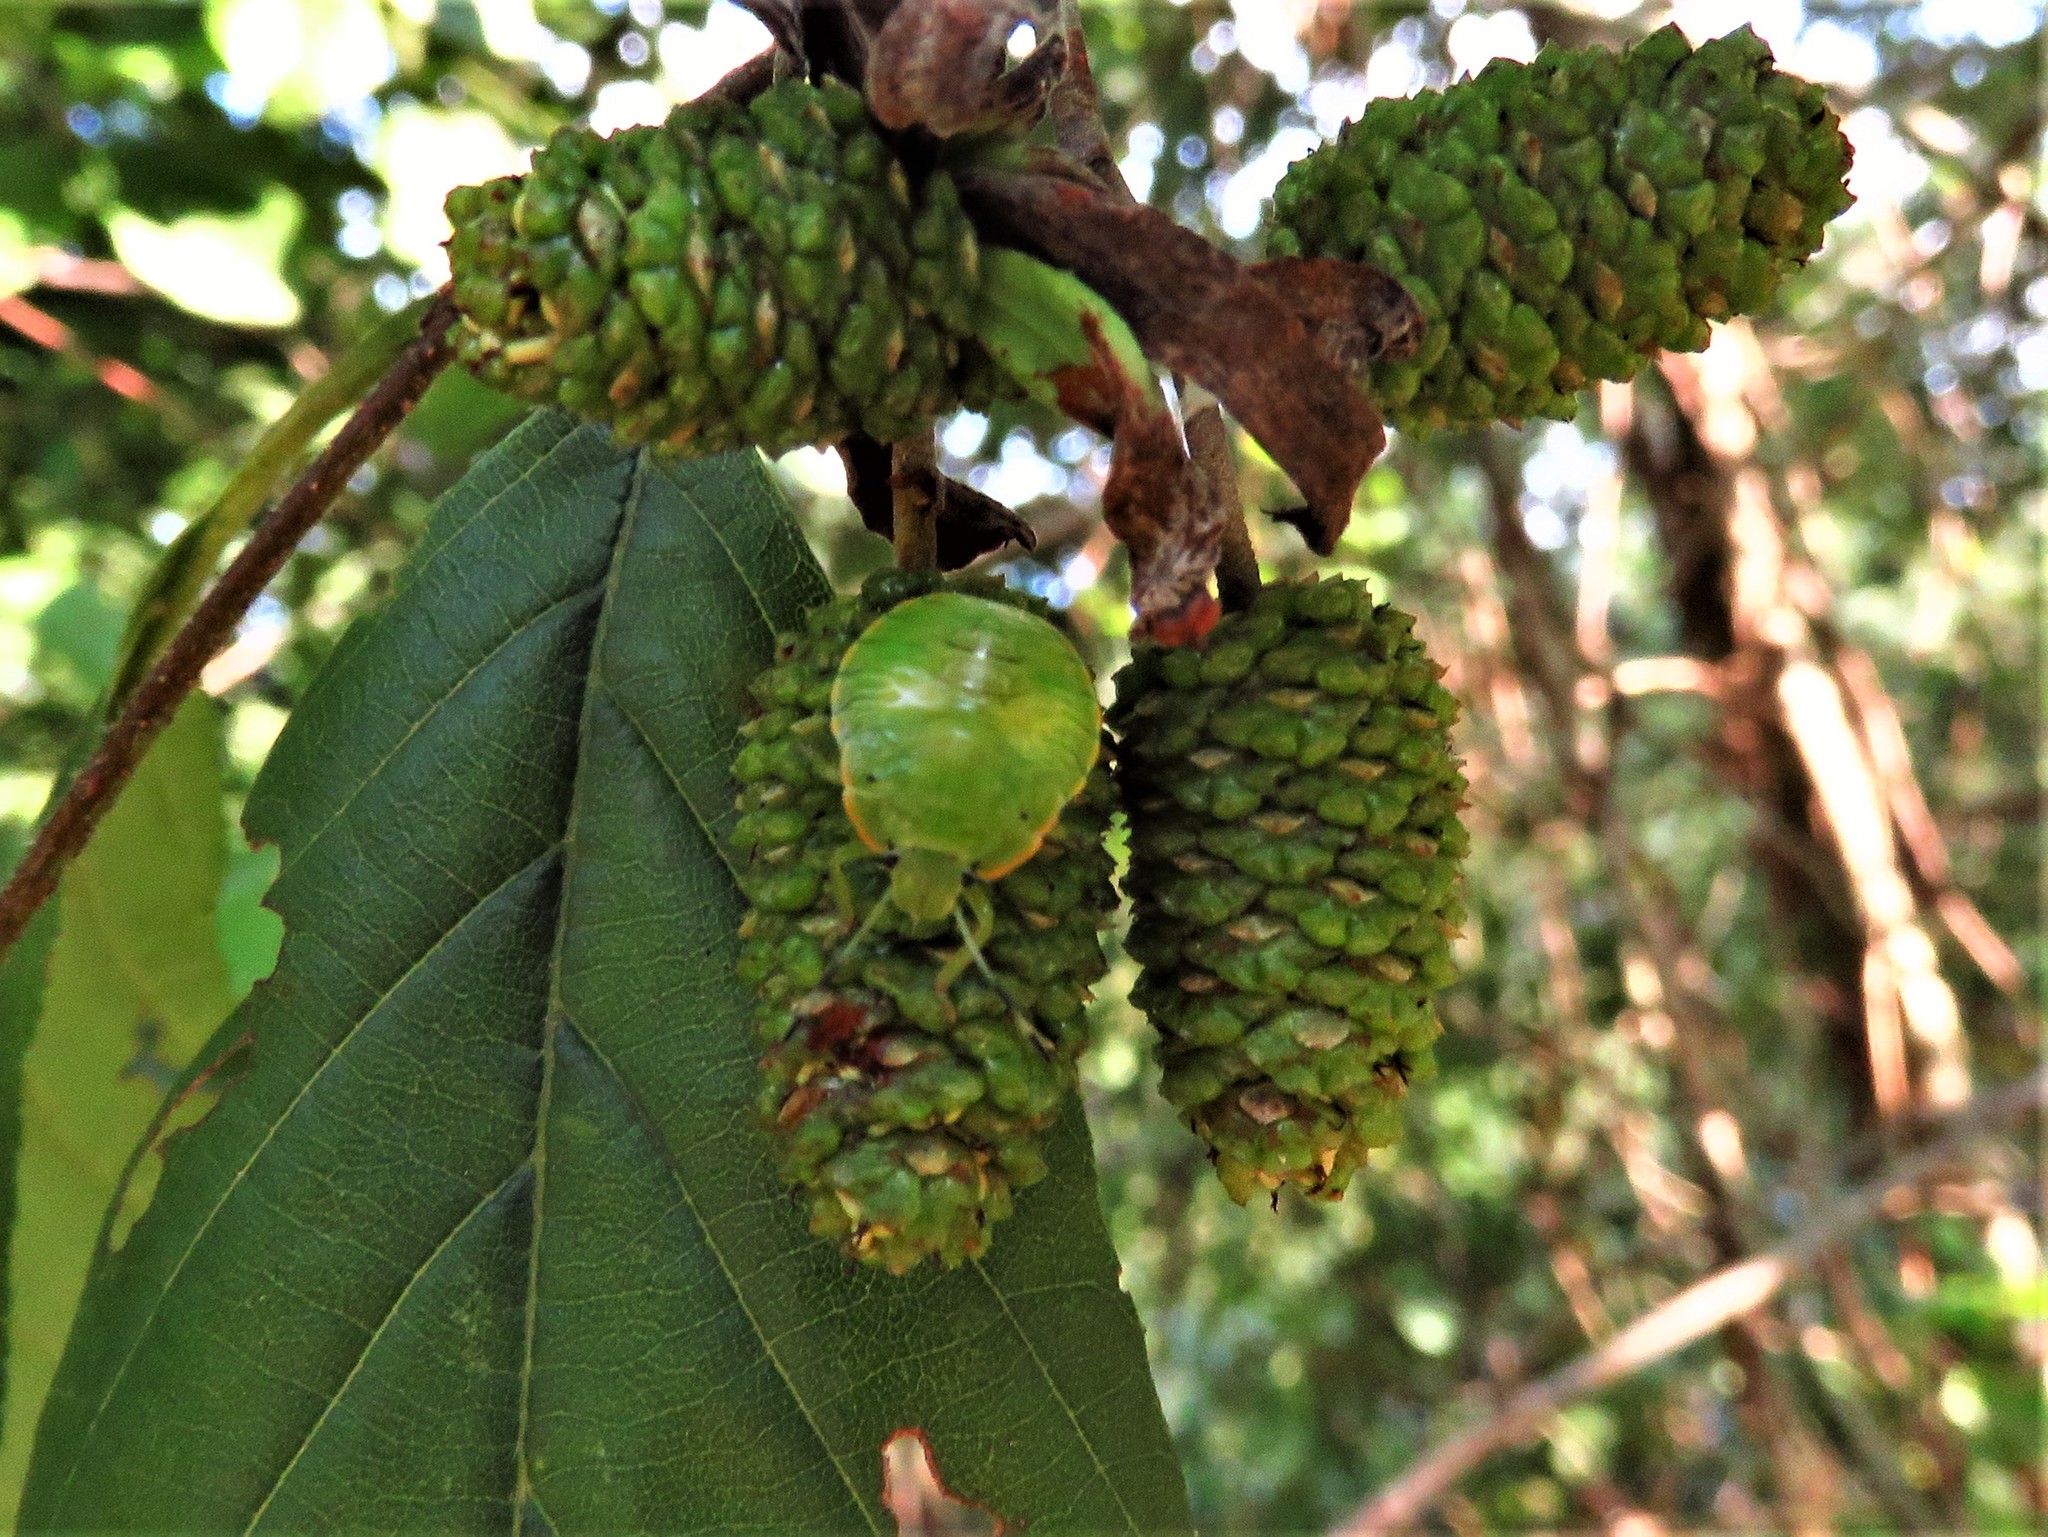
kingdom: Animalia
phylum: Arthropoda
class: Insecta
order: Hemiptera
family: Pentatomidae
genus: Chinavia
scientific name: Chinavia hilaris
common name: Green stink bug
